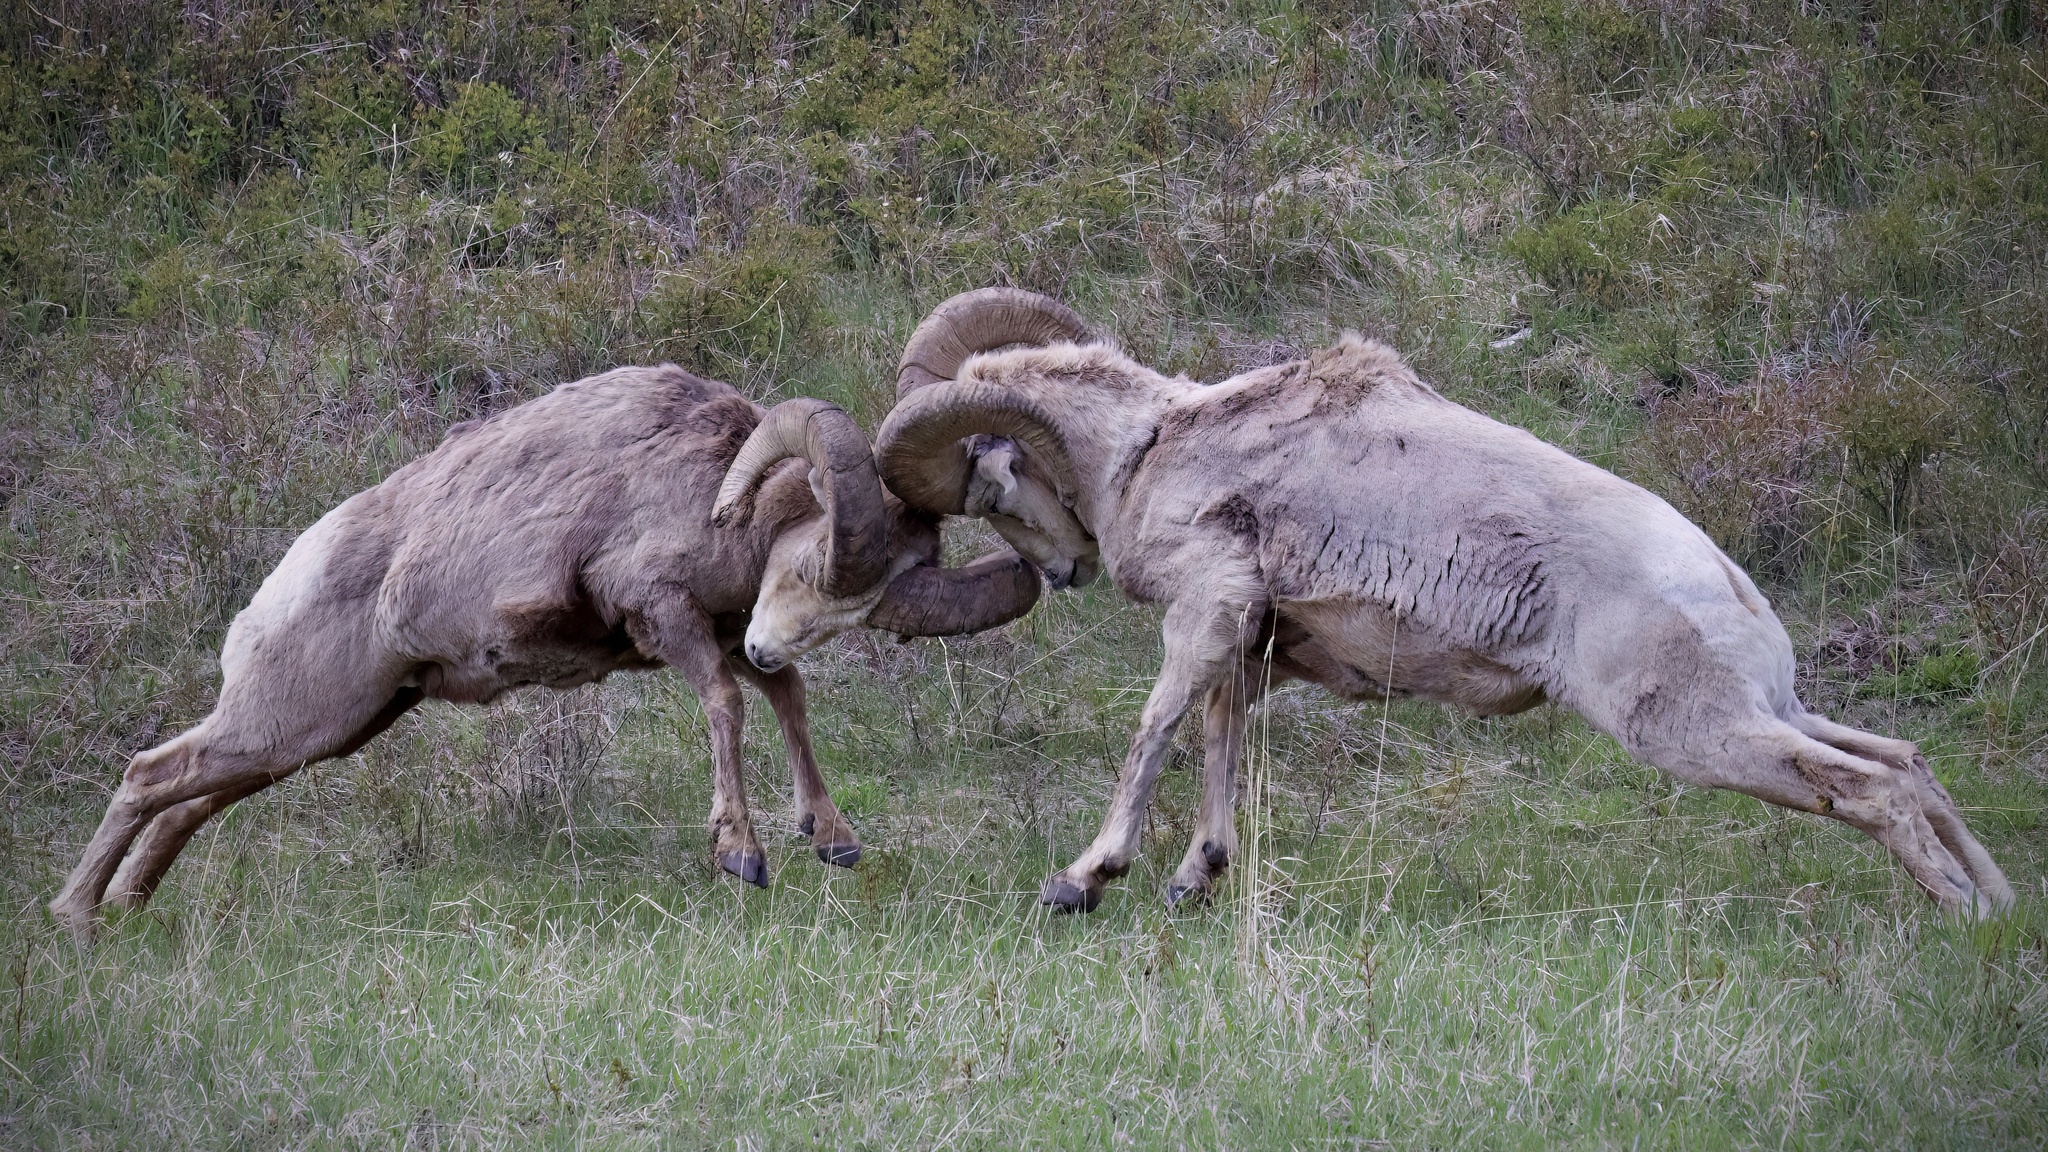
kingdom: Animalia
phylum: Chordata
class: Mammalia
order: Artiodactyla
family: Bovidae
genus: Ovis
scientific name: Ovis canadensis
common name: Bighorn sheep
